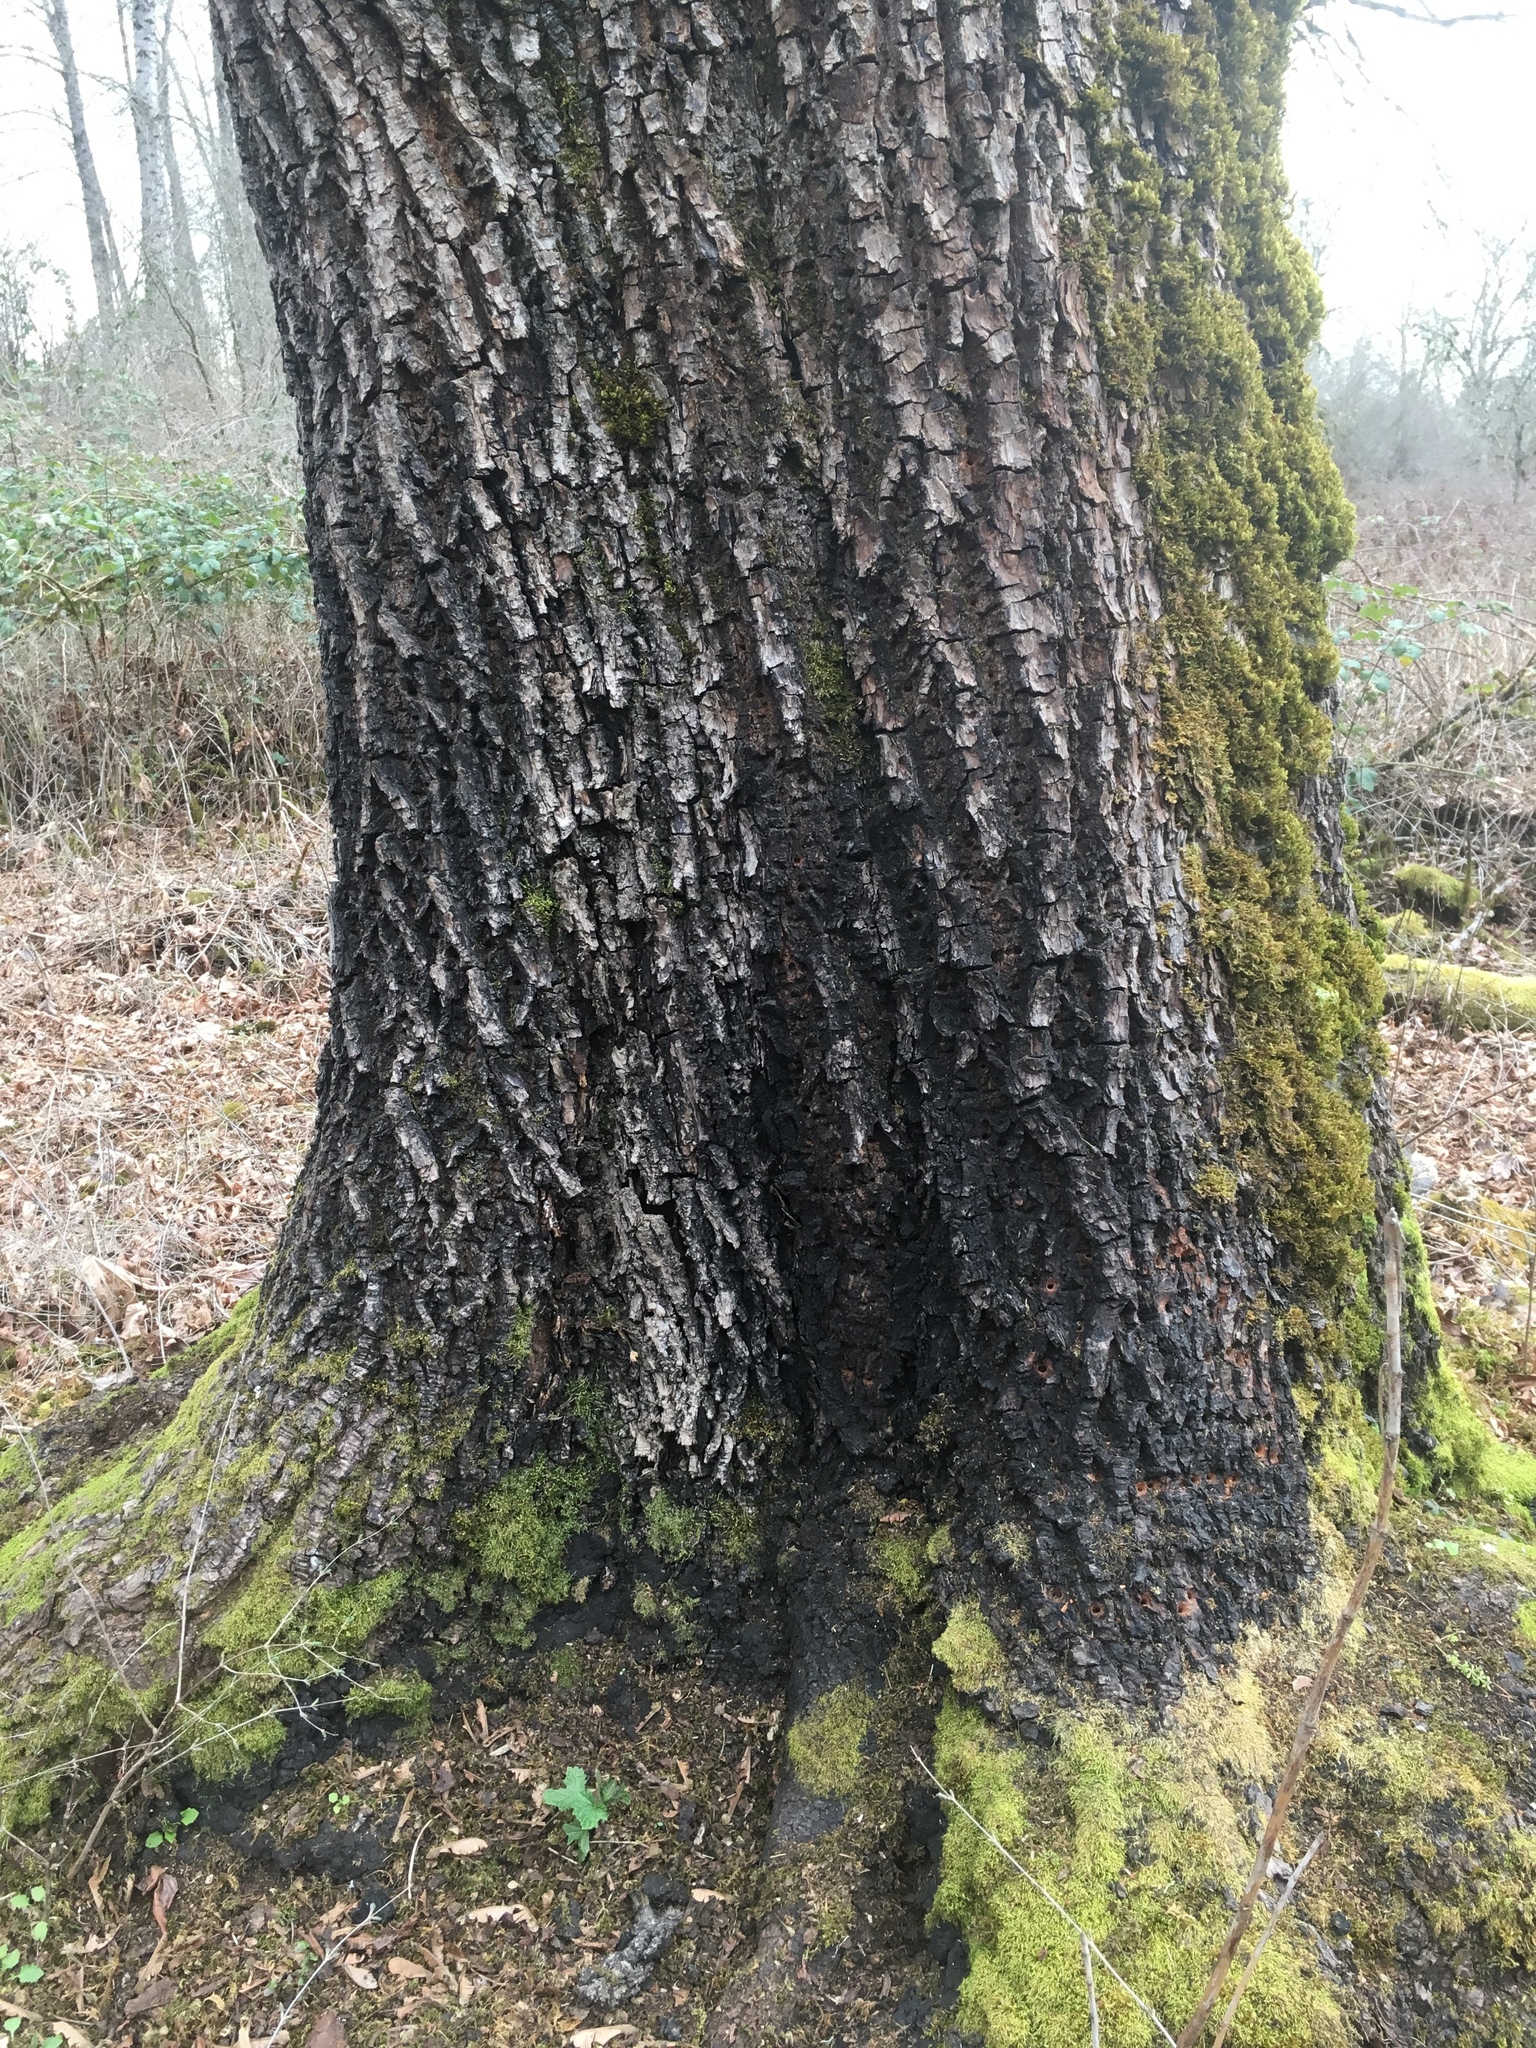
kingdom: Plantae
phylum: Tracheophyta
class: Magnoliopsida
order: Sapindales
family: Sapindaceae
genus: Acer
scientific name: Acer macrophyllum
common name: Oregon maple
